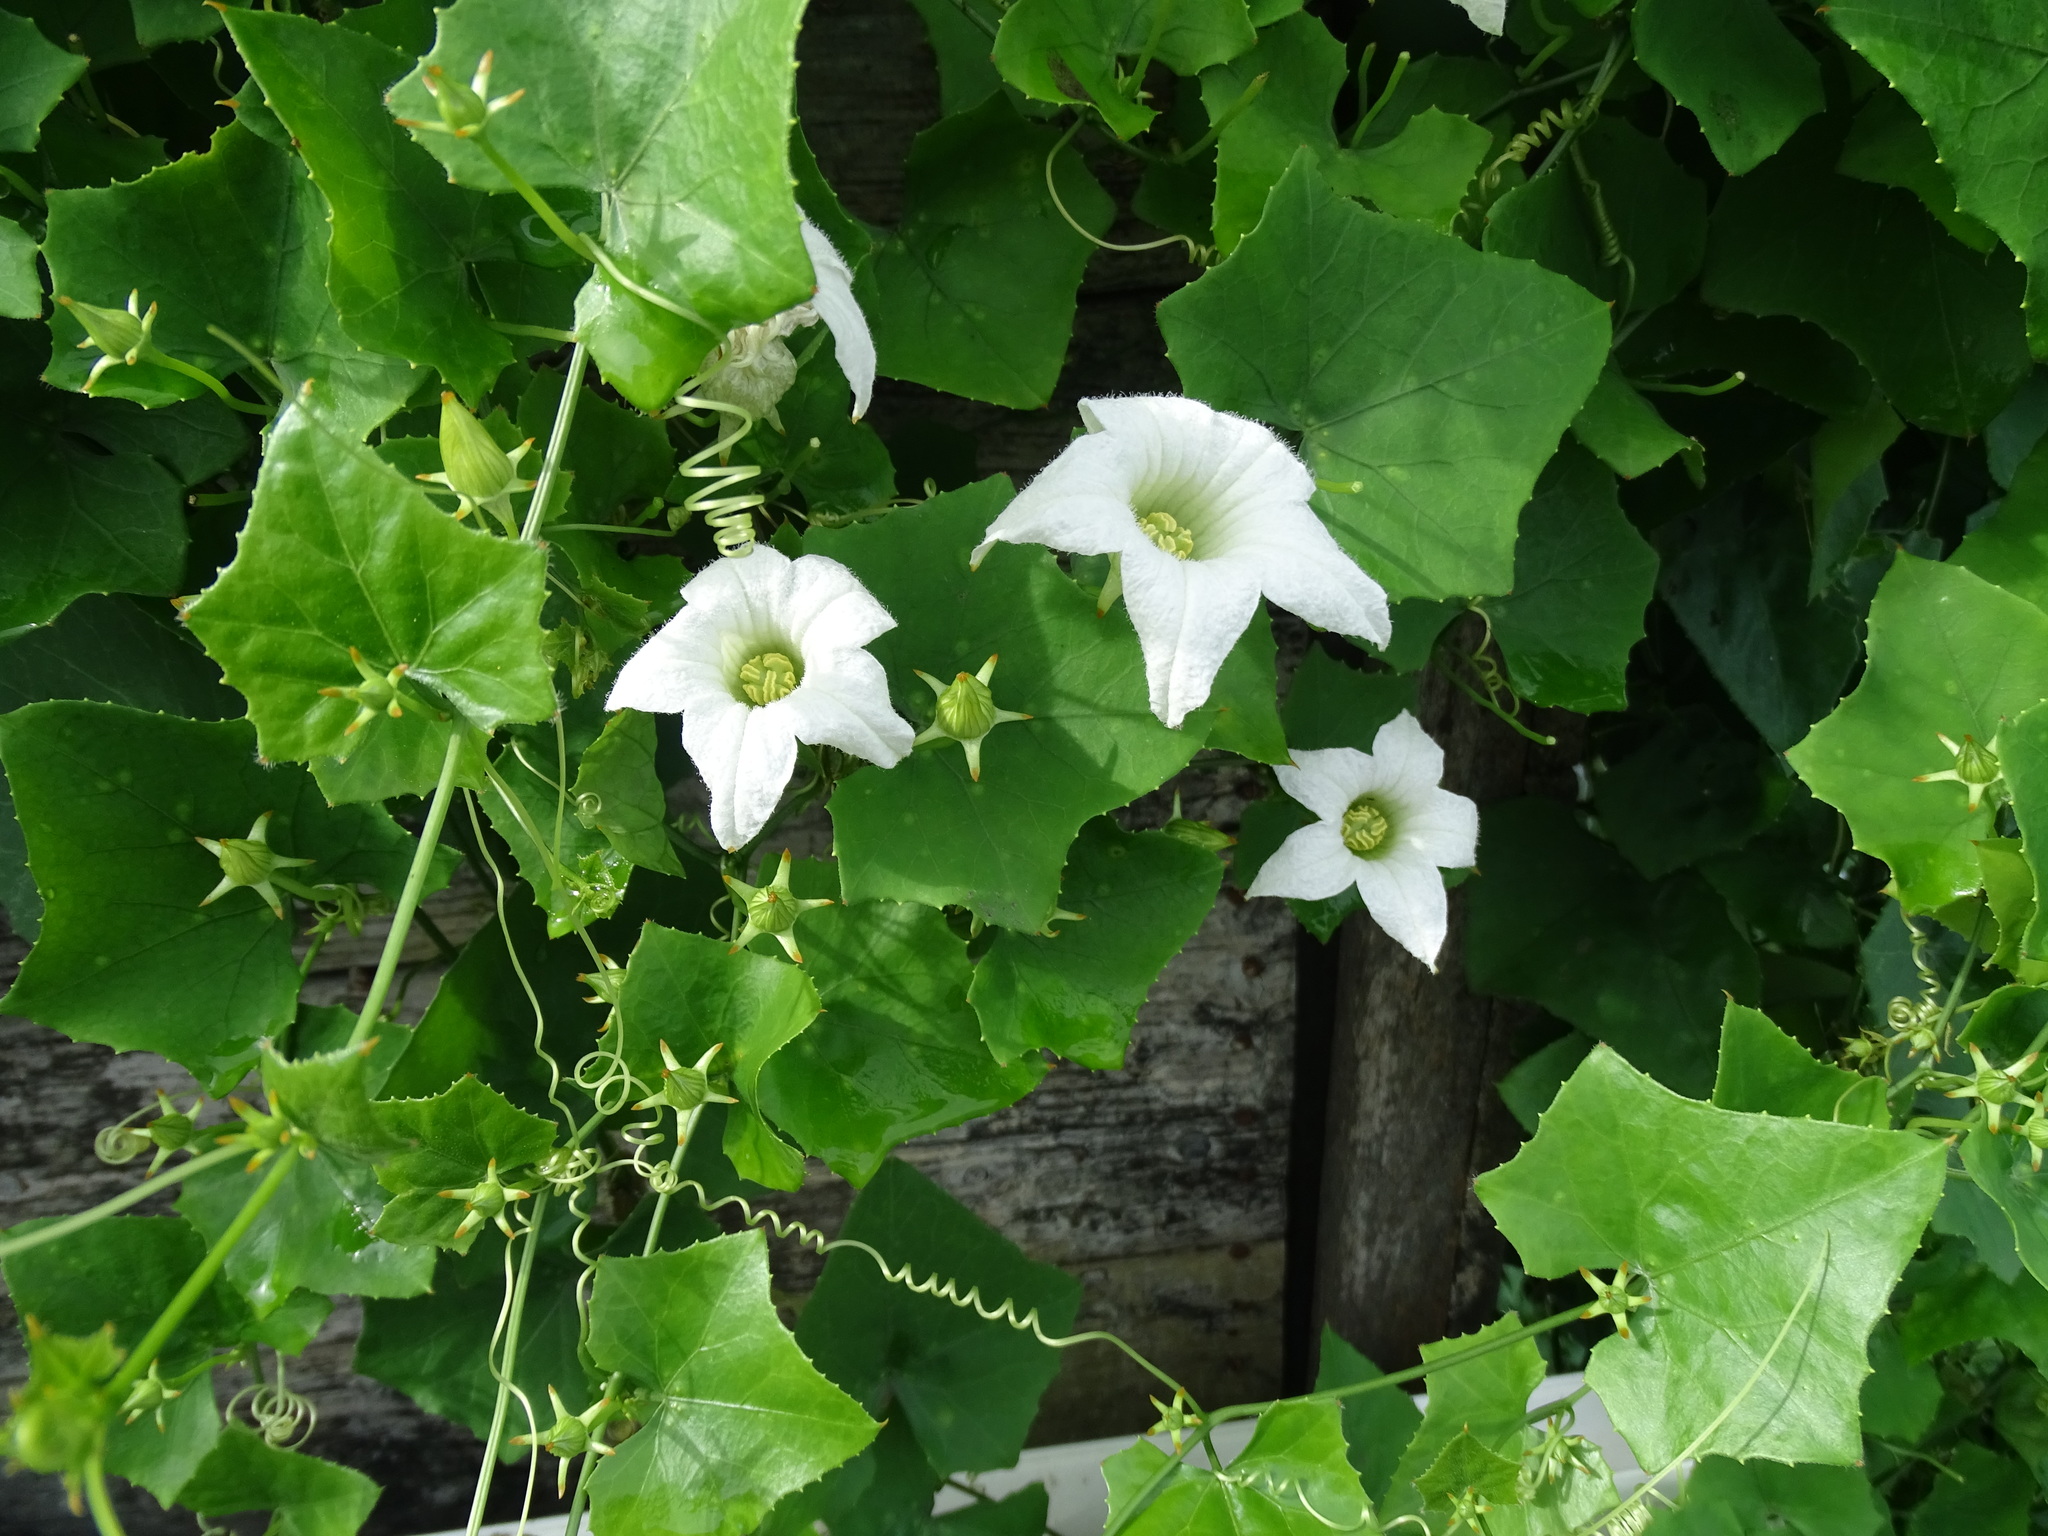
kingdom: Plantae
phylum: Tracheophyta
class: Magnoliopsida
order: Cucurbitales
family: Cucurbitaceae
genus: Coccinia
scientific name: Coccinia grandis
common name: Ivy gourd
